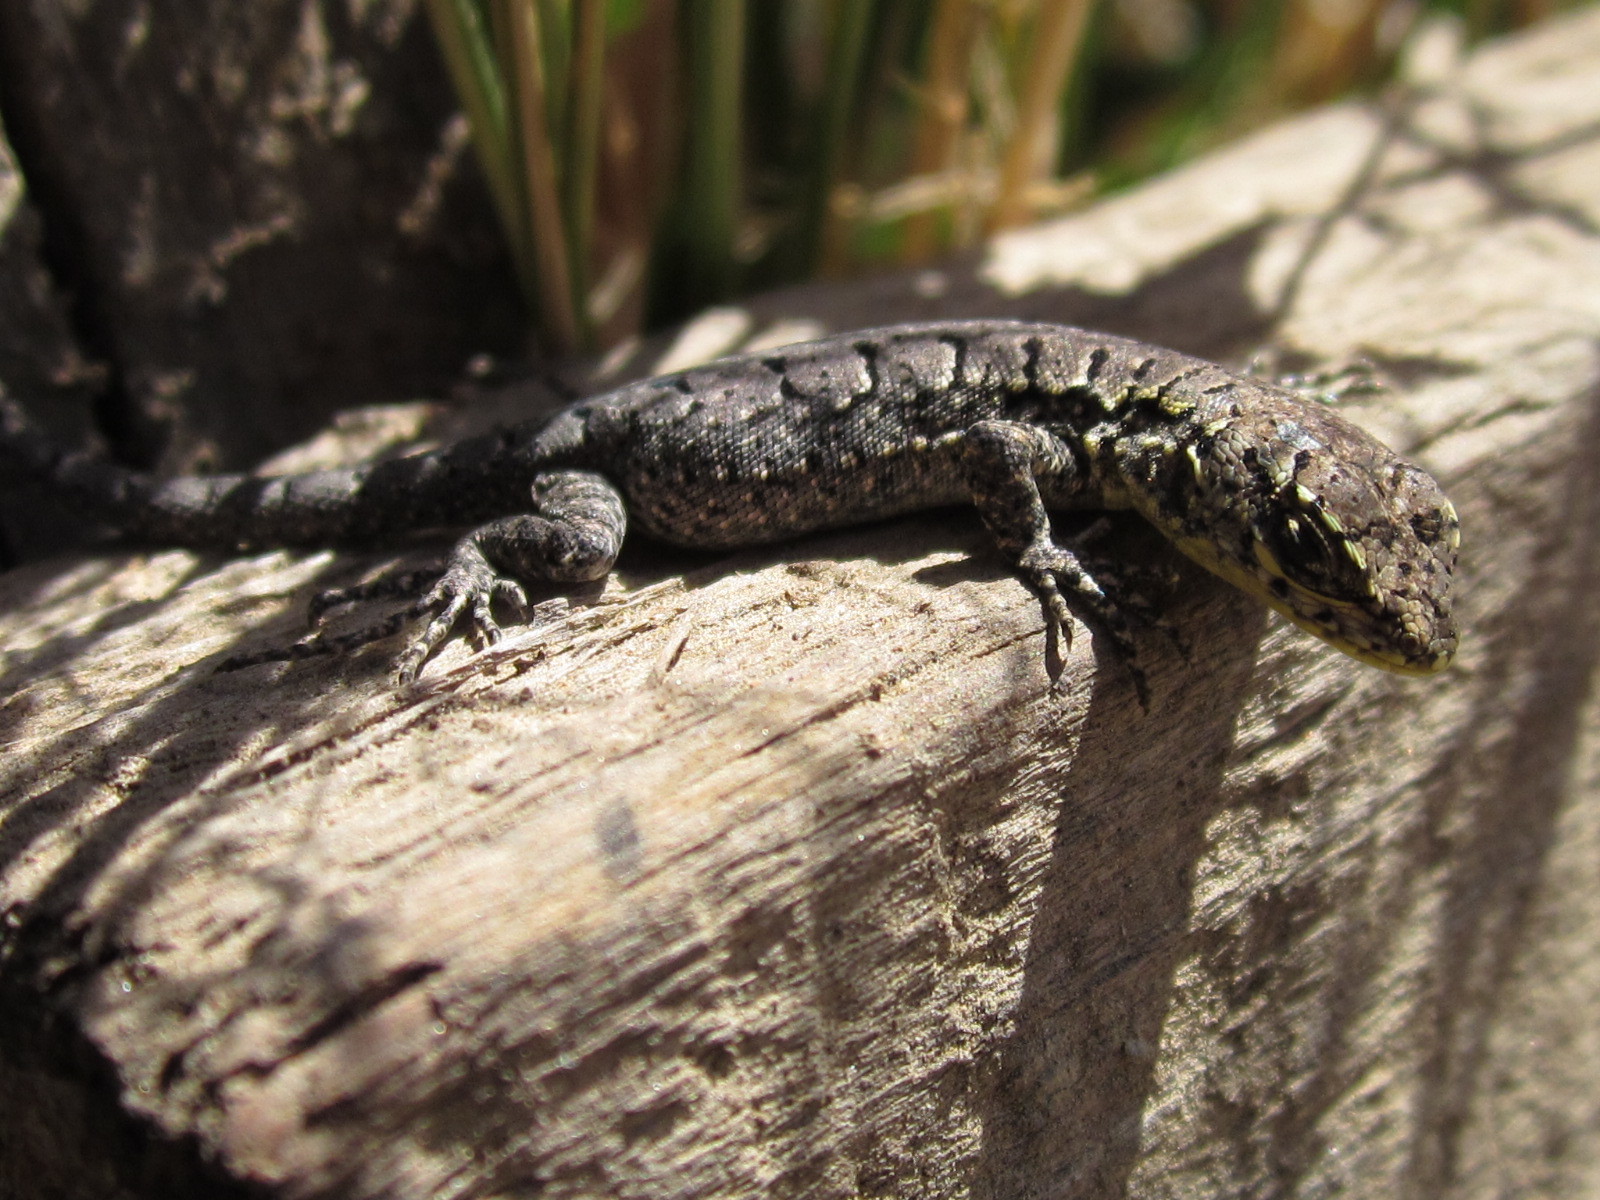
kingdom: Animalia
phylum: Chordata
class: Squamata
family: Liolaemidae
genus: Liolaemus
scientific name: Liolaemus tenuis
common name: Thin tree iguana
